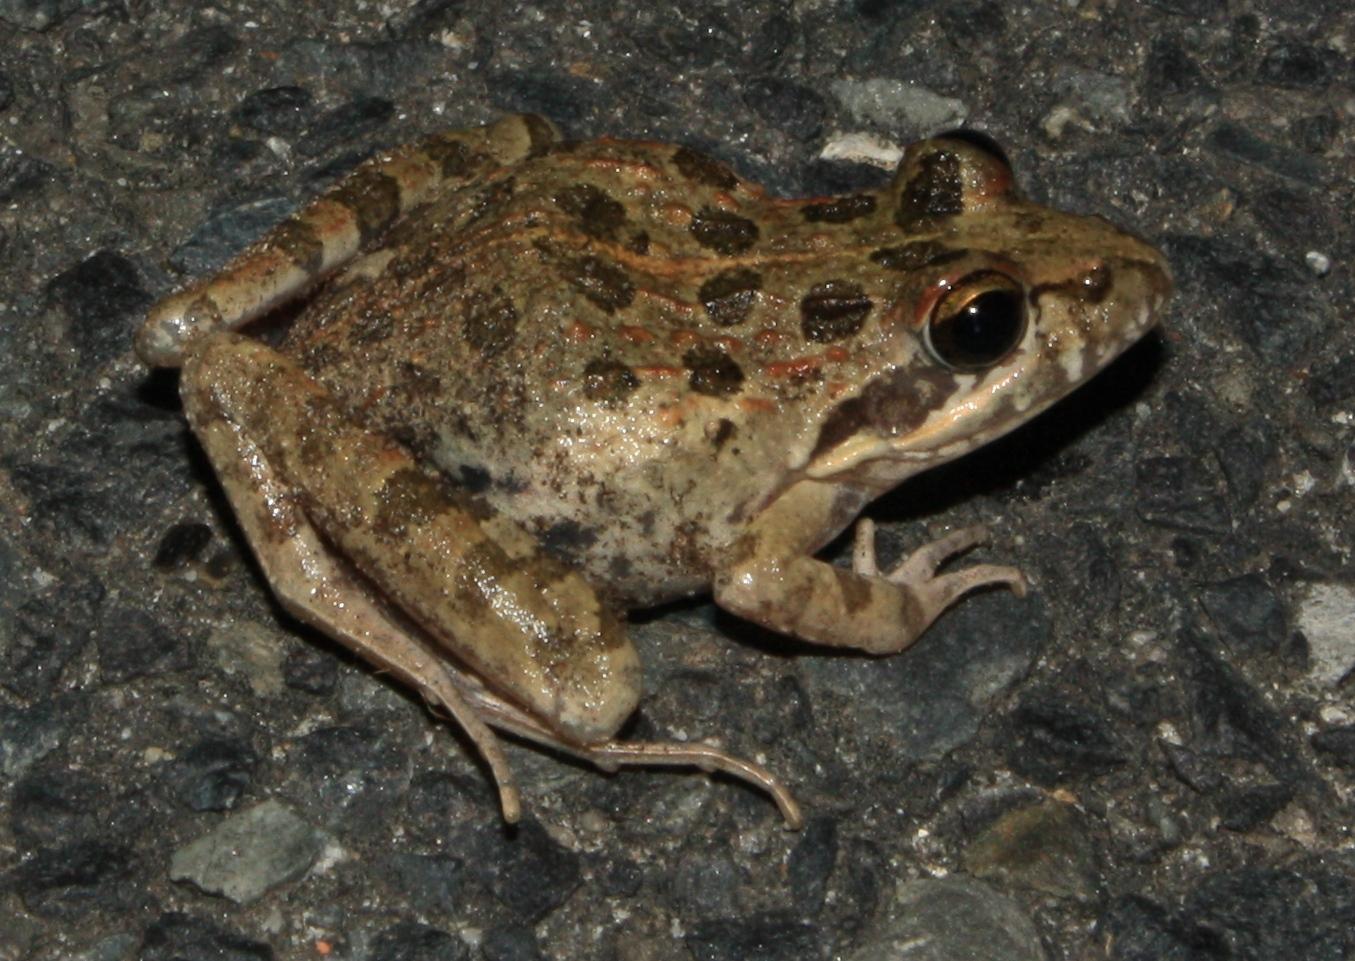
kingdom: Animalia
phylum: Chordata
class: Amphibia
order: Anura
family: Pyxicephalidae
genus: Strongylopus
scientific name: Strongylopus grayii
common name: Gray's stream frog
